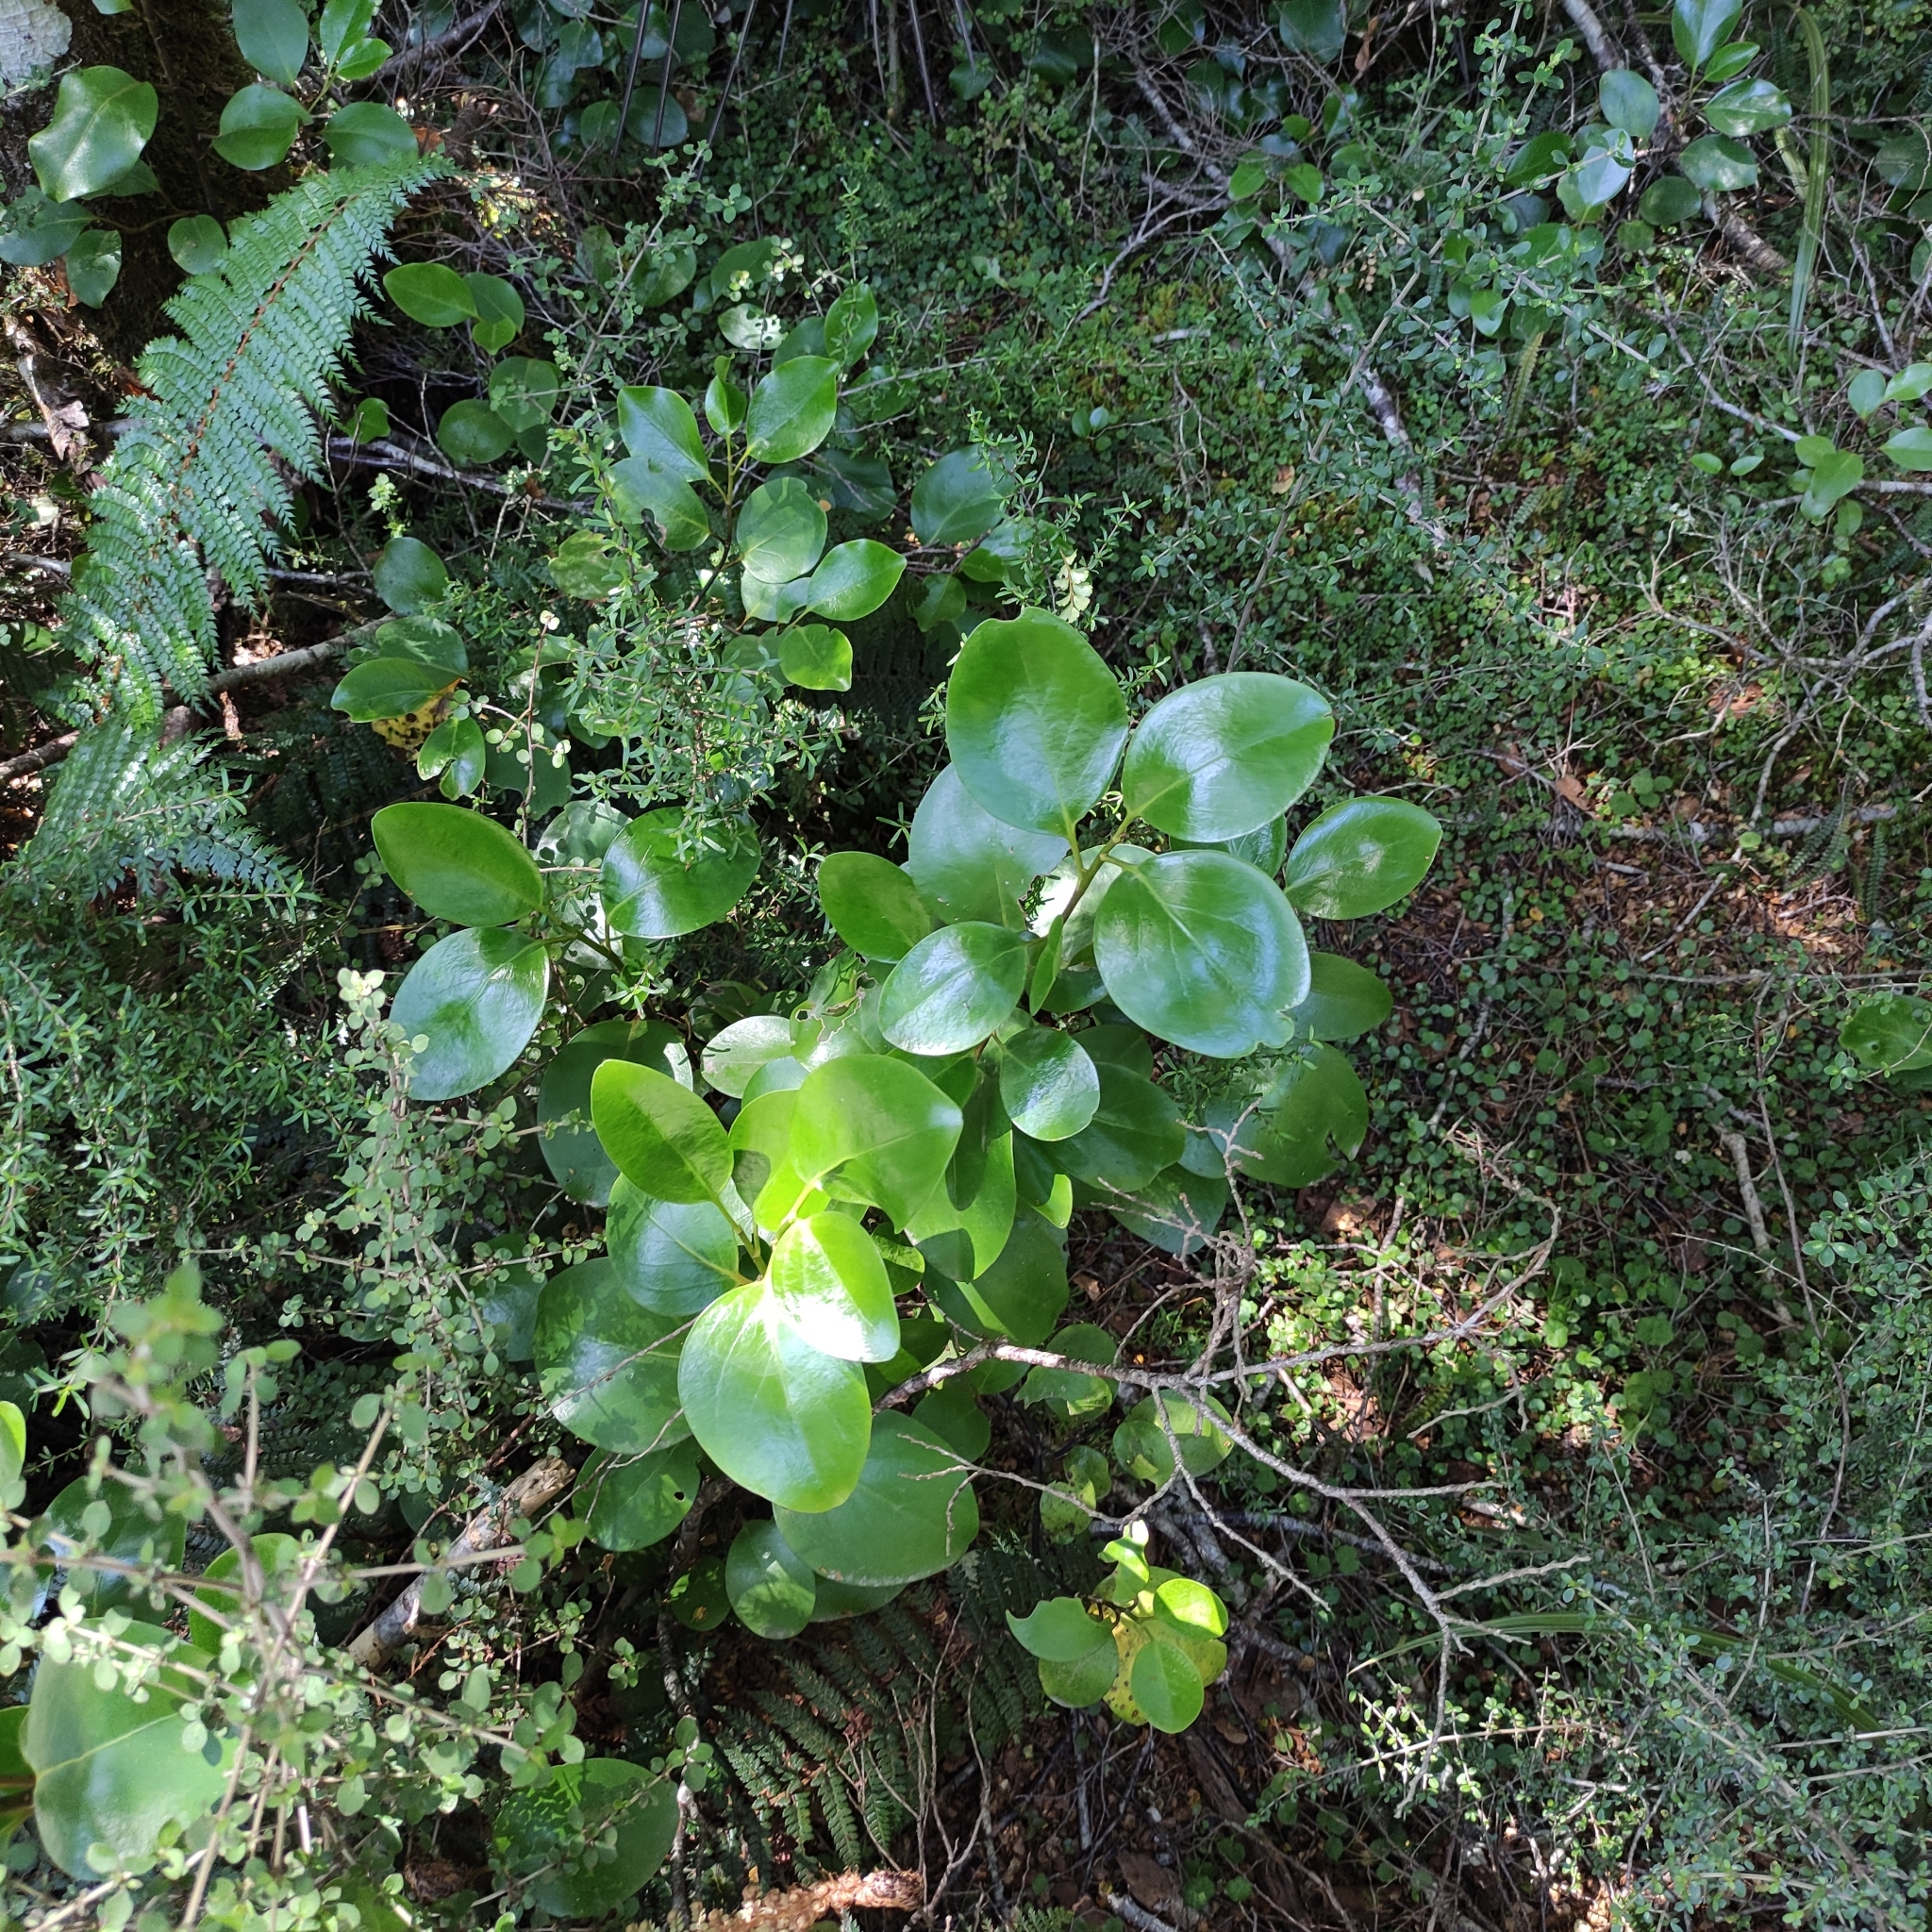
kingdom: Plantae
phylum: Tracheophyta
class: Magnoliopsida
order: Apiales
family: Griseliniaceae
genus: Griselinia
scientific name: Griselinia littoralis
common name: New zealand broadleaf
